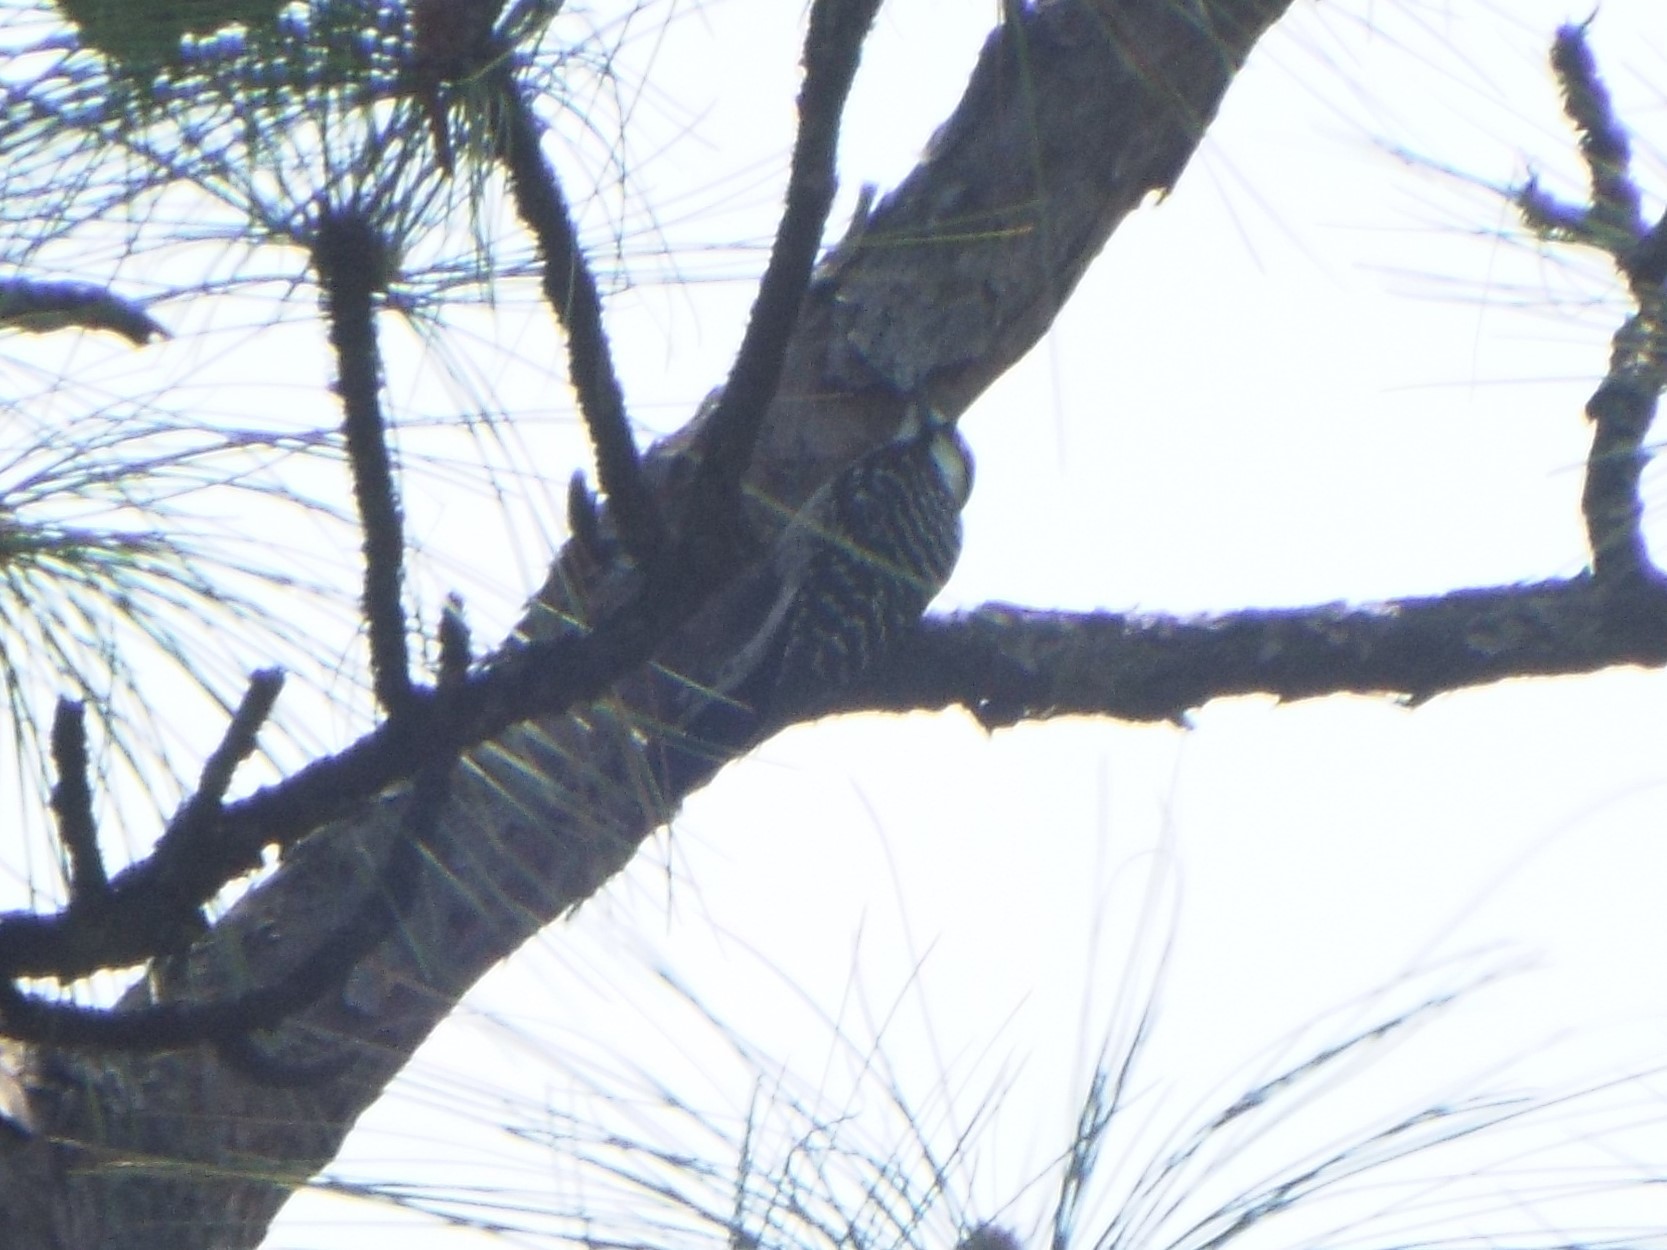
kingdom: Animalia
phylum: Chordata
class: Aves
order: Piciformes
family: Picidae
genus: Leuconotopicus
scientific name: Leuconotopicus borealis
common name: Red-cockaded woodpecker
